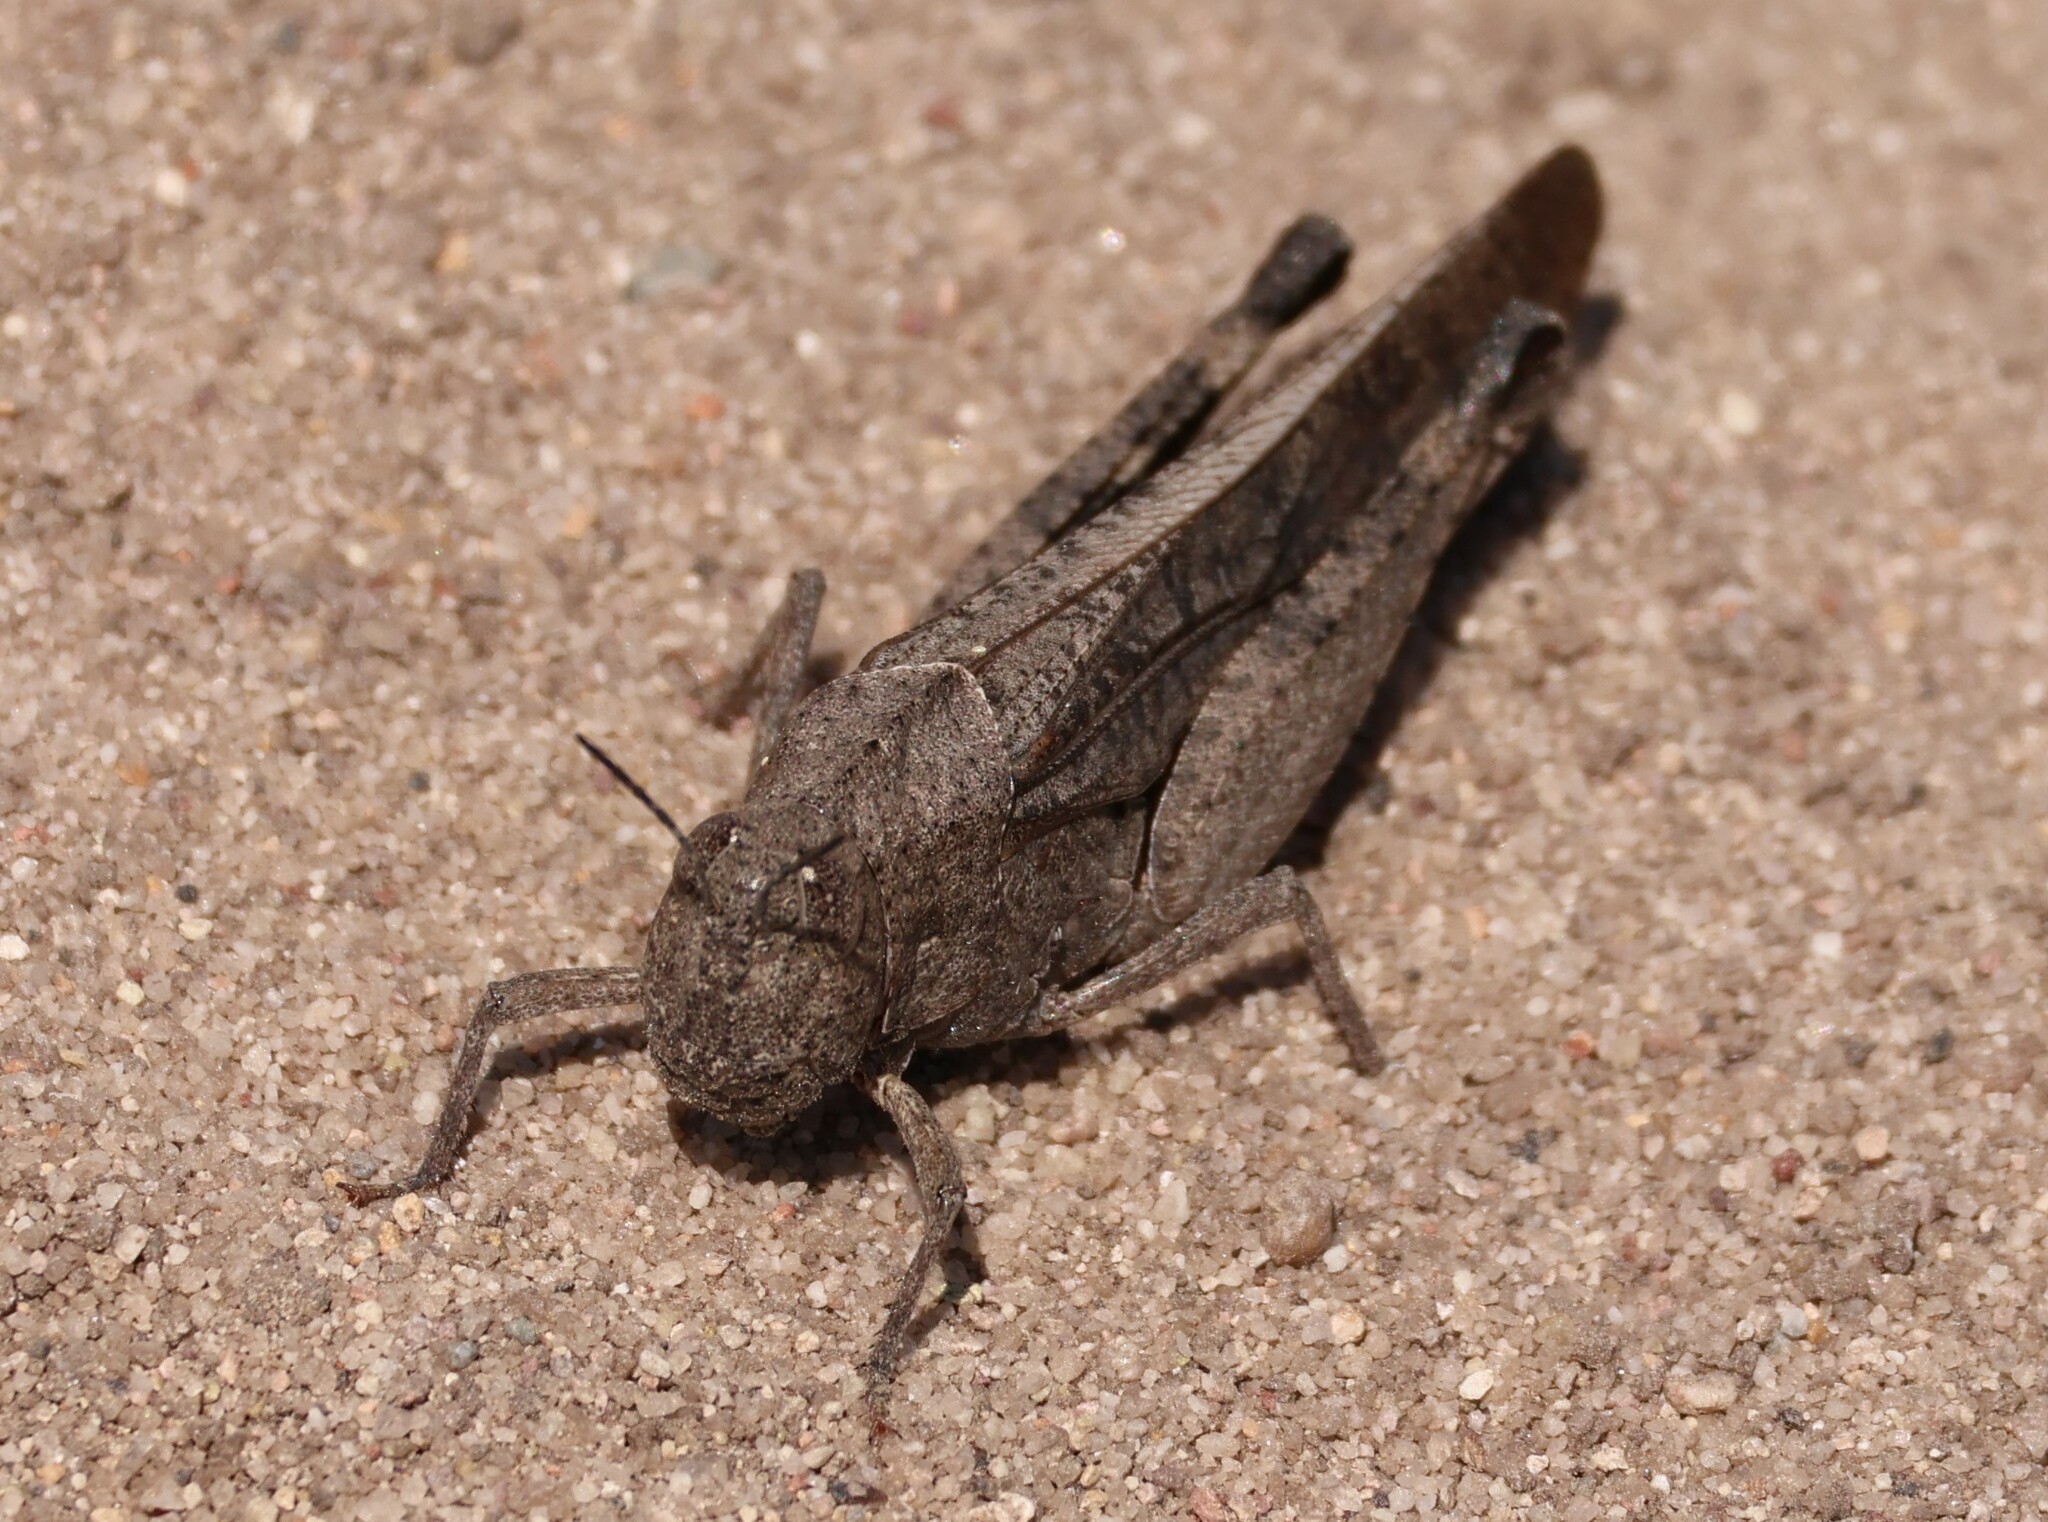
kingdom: Animalia
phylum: Arthropoda
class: Insecta
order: Orthoptera
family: Acrididae
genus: Arphia
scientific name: Arphia ramona
